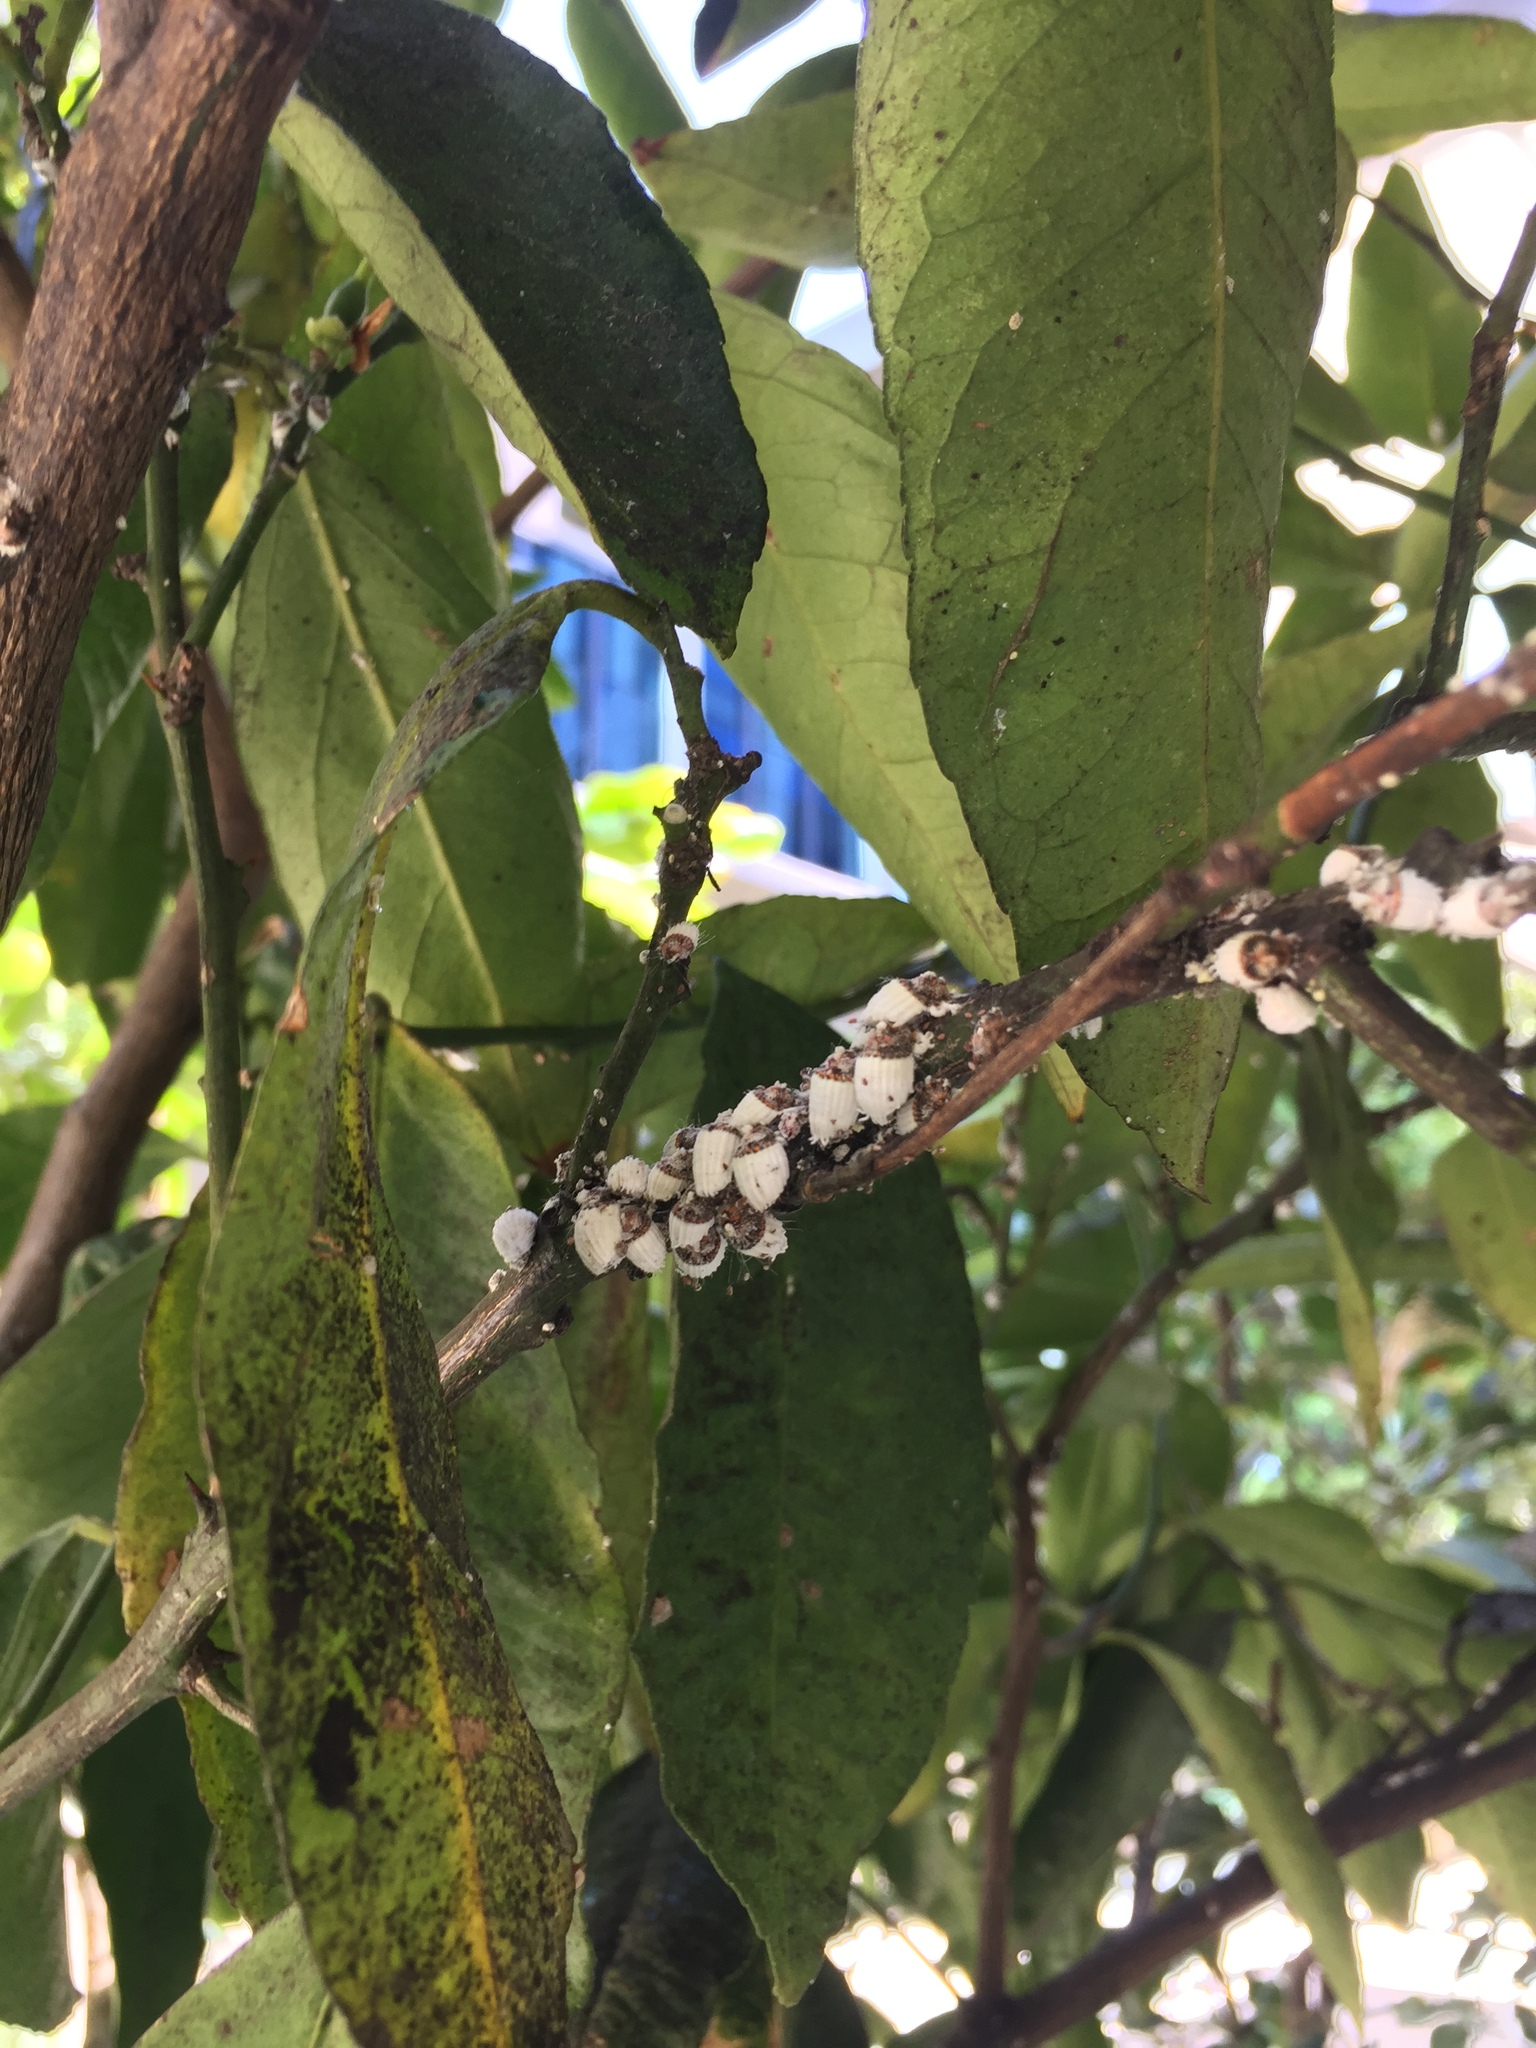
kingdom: Animalia
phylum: Arthropoda
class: Insecta
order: Hemiptera
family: Margarodidae
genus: Icerya
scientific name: Icerya purchasi
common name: Cottony cushion scale
